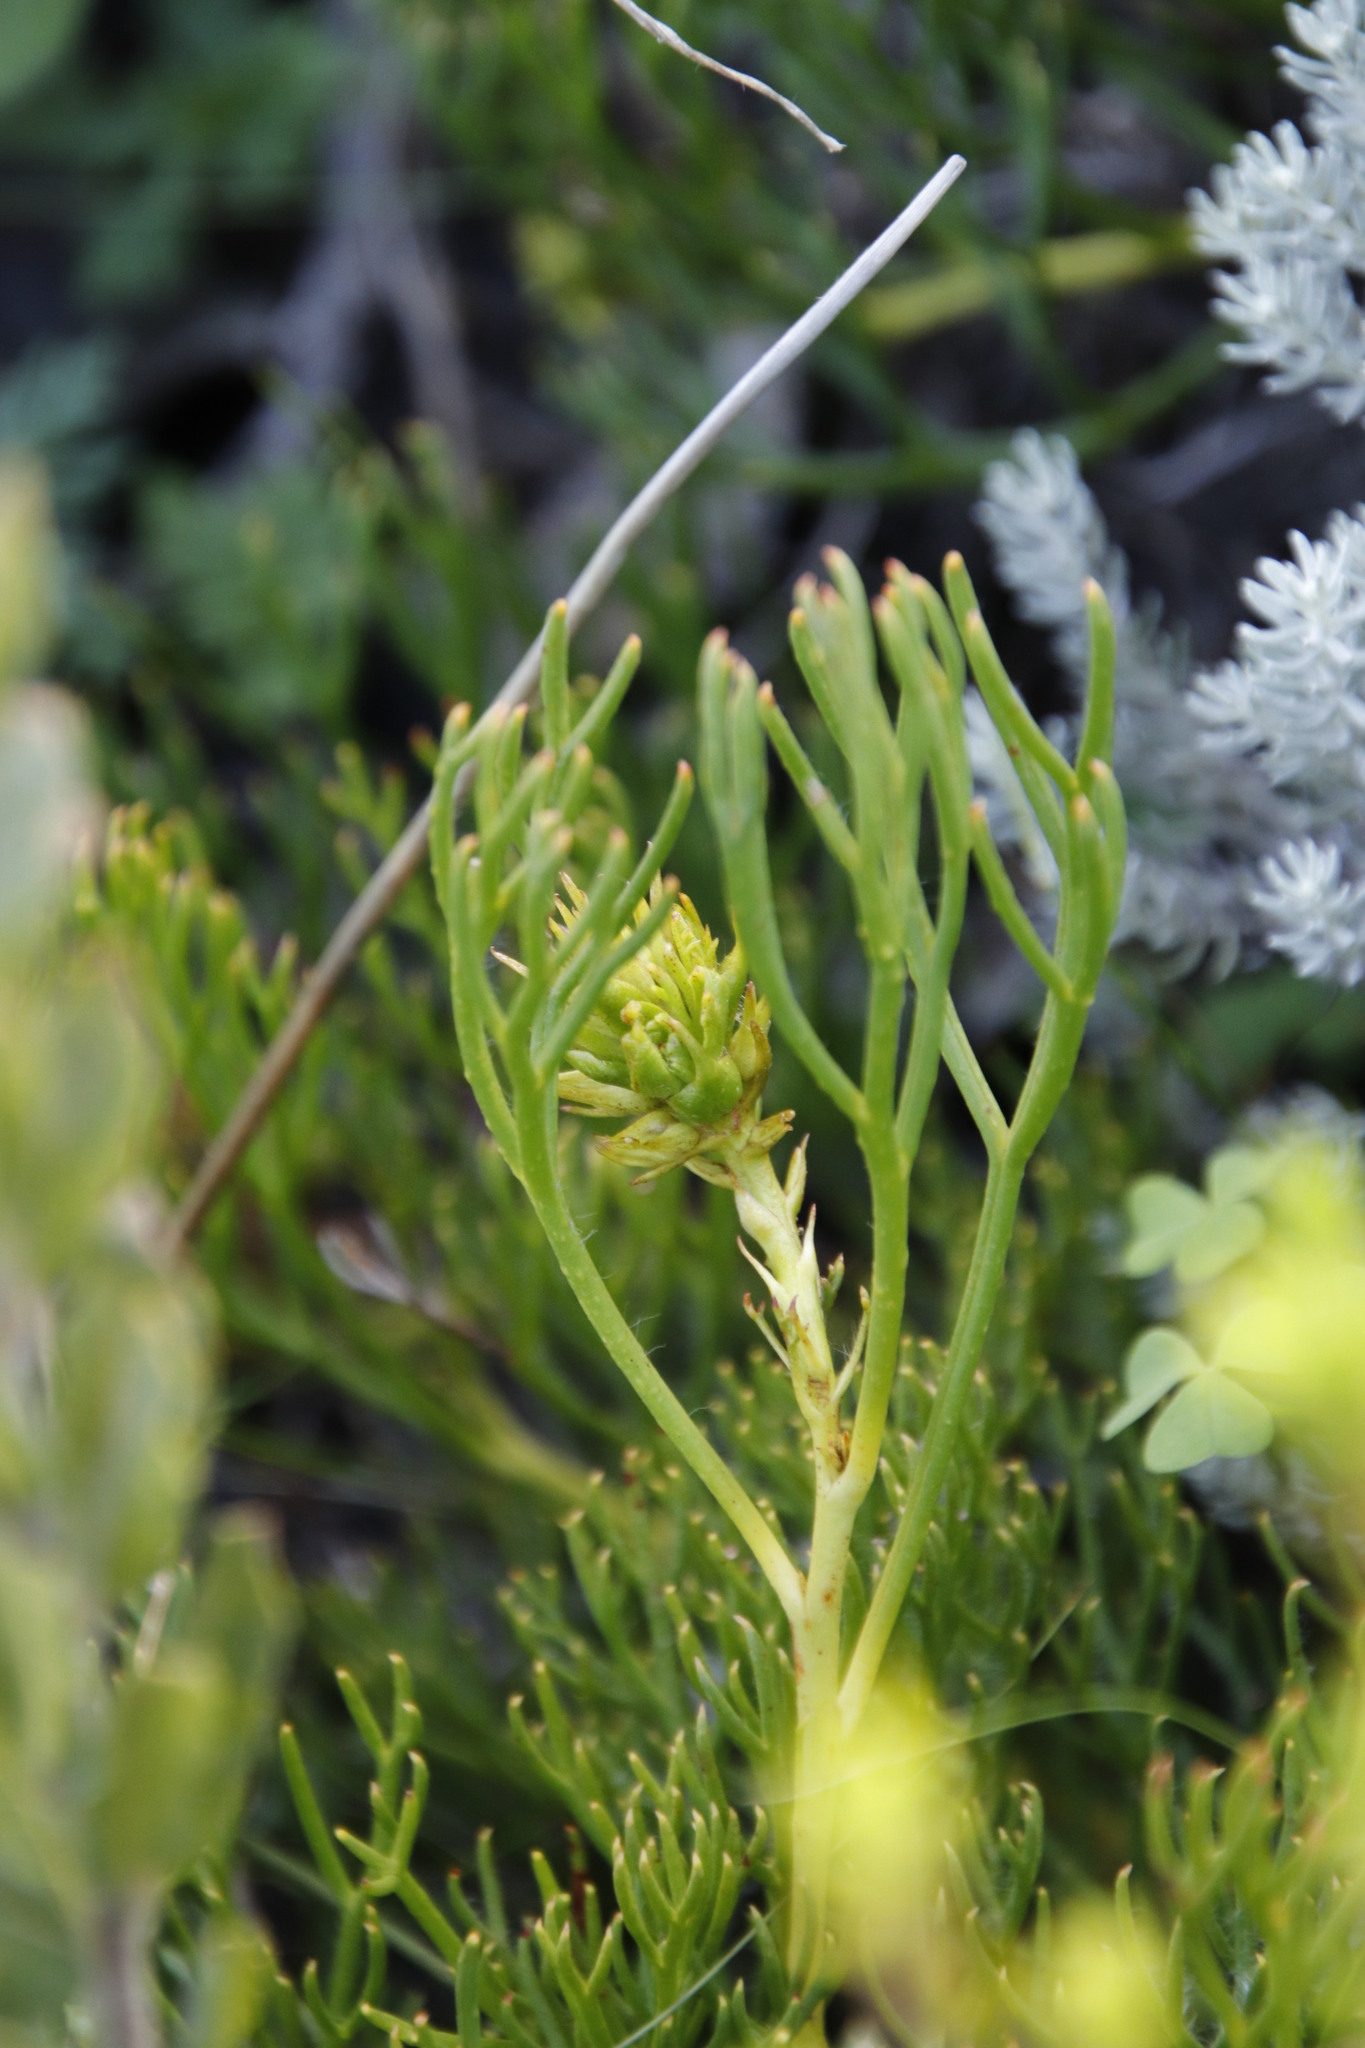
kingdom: Plantae
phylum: Tracheophyta
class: Magnoliopsida
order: Proteales
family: Proteaceae
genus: Serruria
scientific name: Serruria collina
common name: Lost spiderhead
